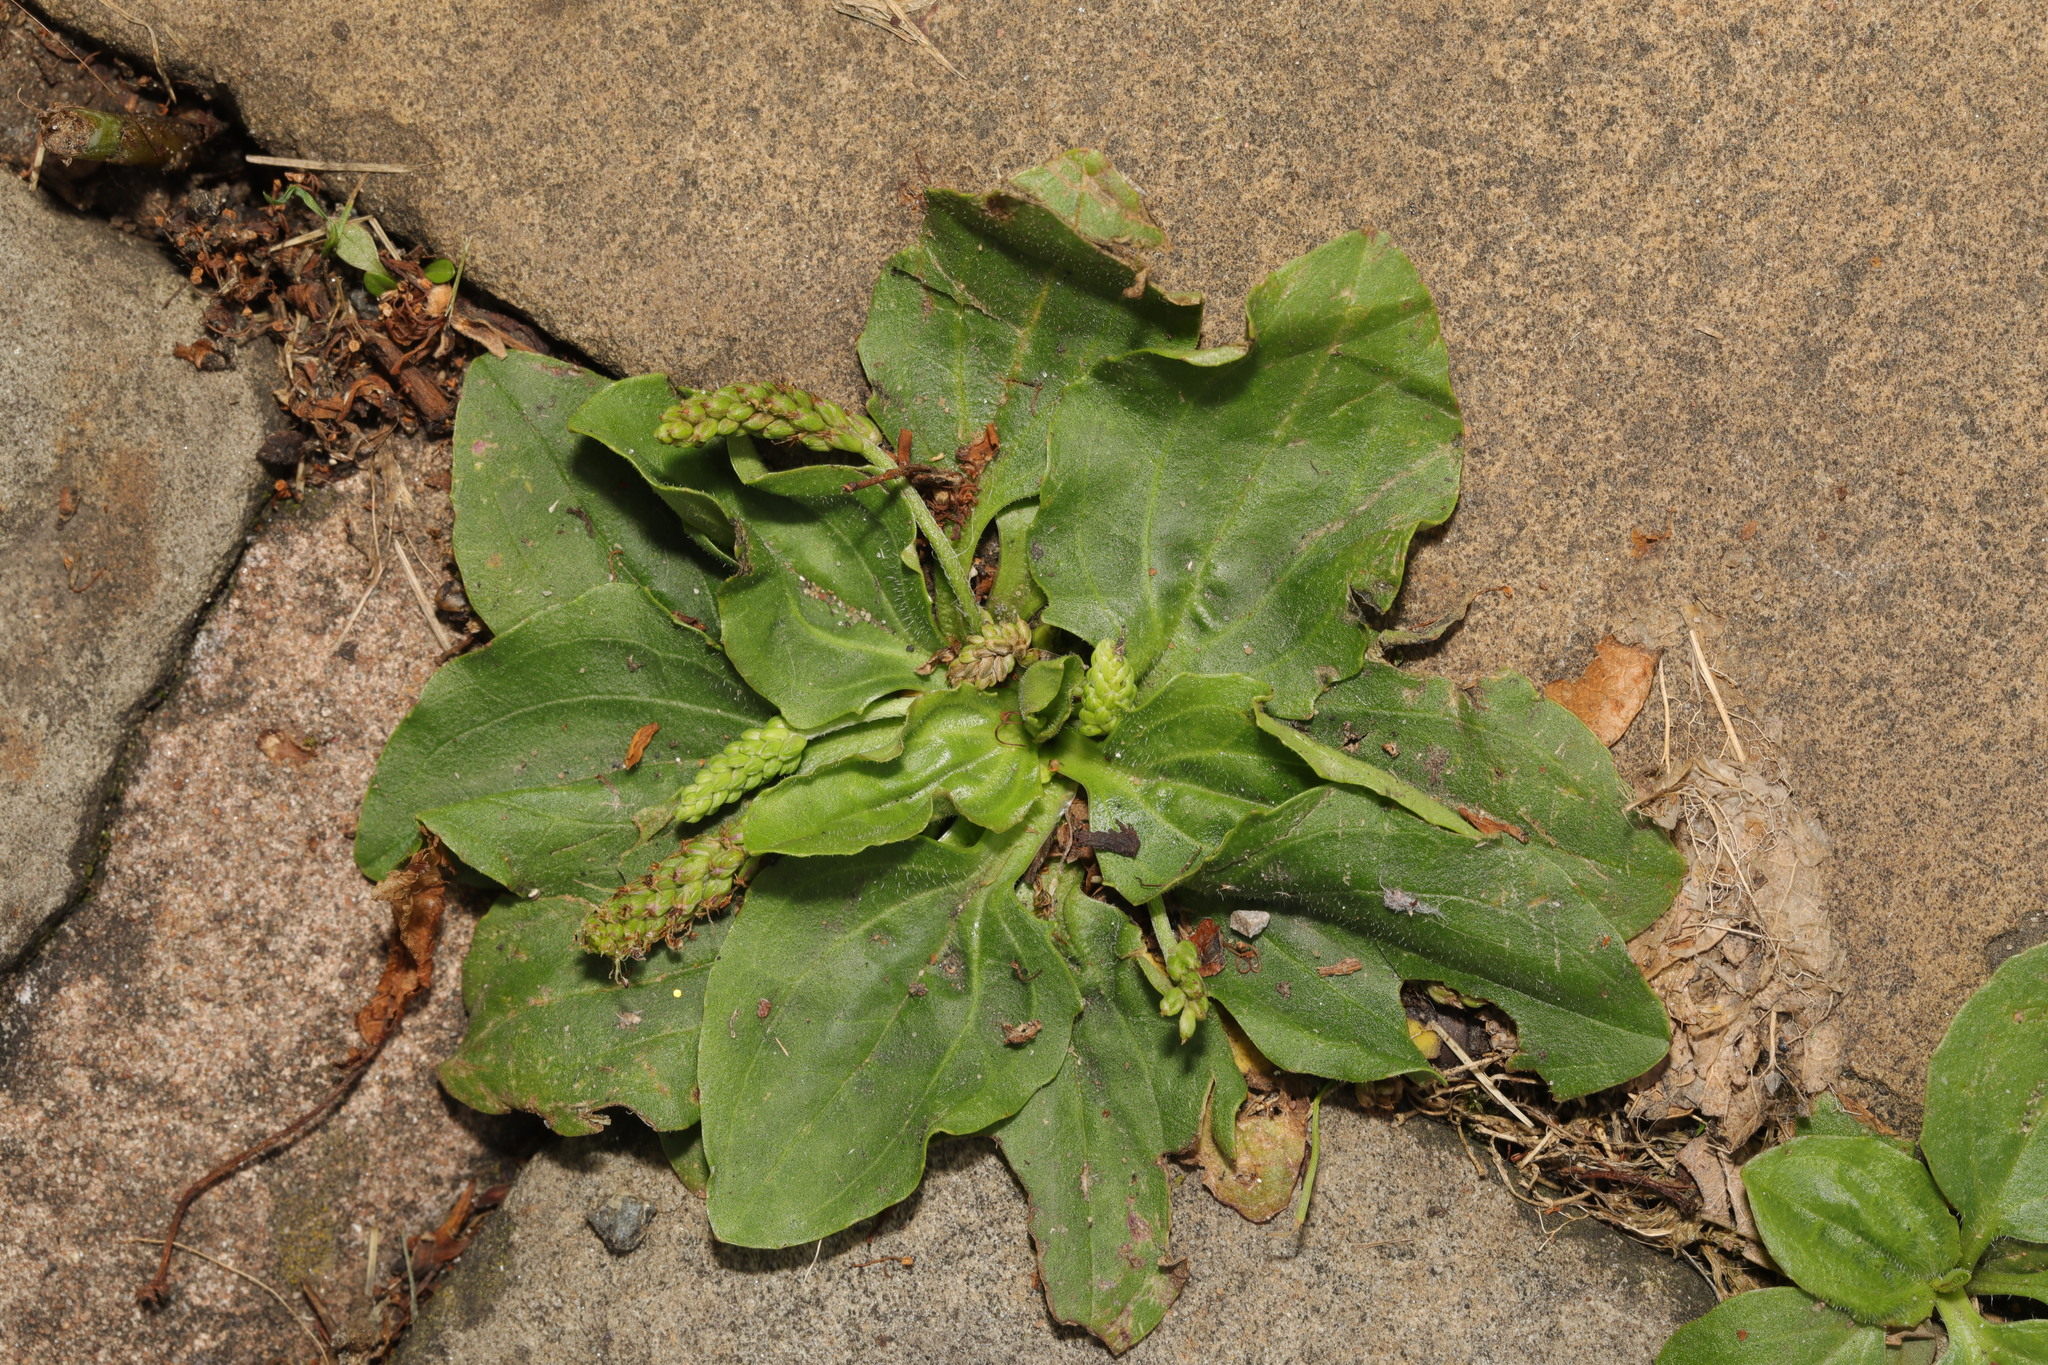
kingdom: Plantae
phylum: Tracheophyta
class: Magnoliopsida
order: Lamiales
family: Plantaginaceae
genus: Plantago
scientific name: Plantago major
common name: Common plantain
